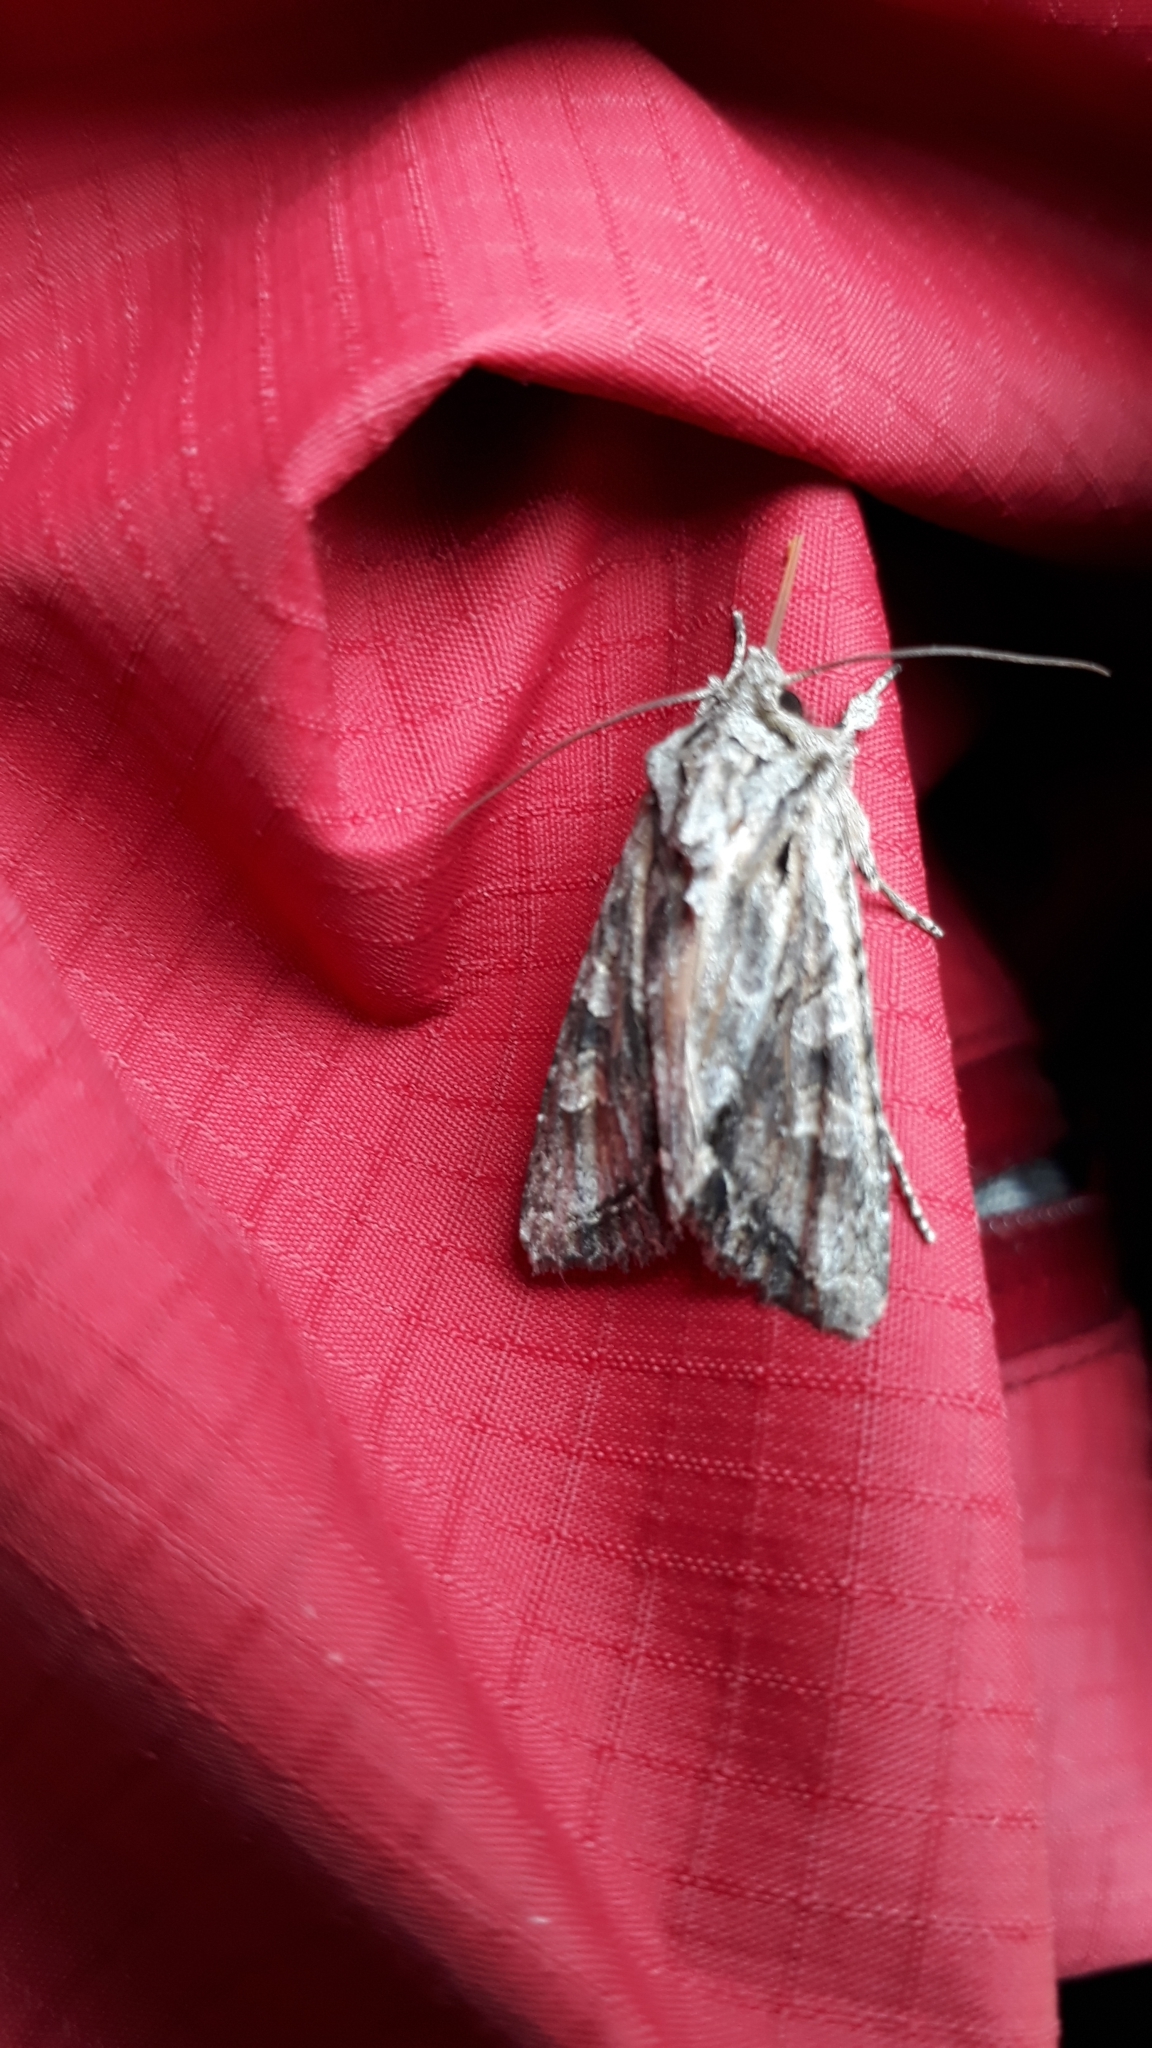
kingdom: Animalia
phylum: Arthropoda
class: Insecta
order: Lepidoptera
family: Noctuidae
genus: Ichneutica
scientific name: Ichneutica mutans
